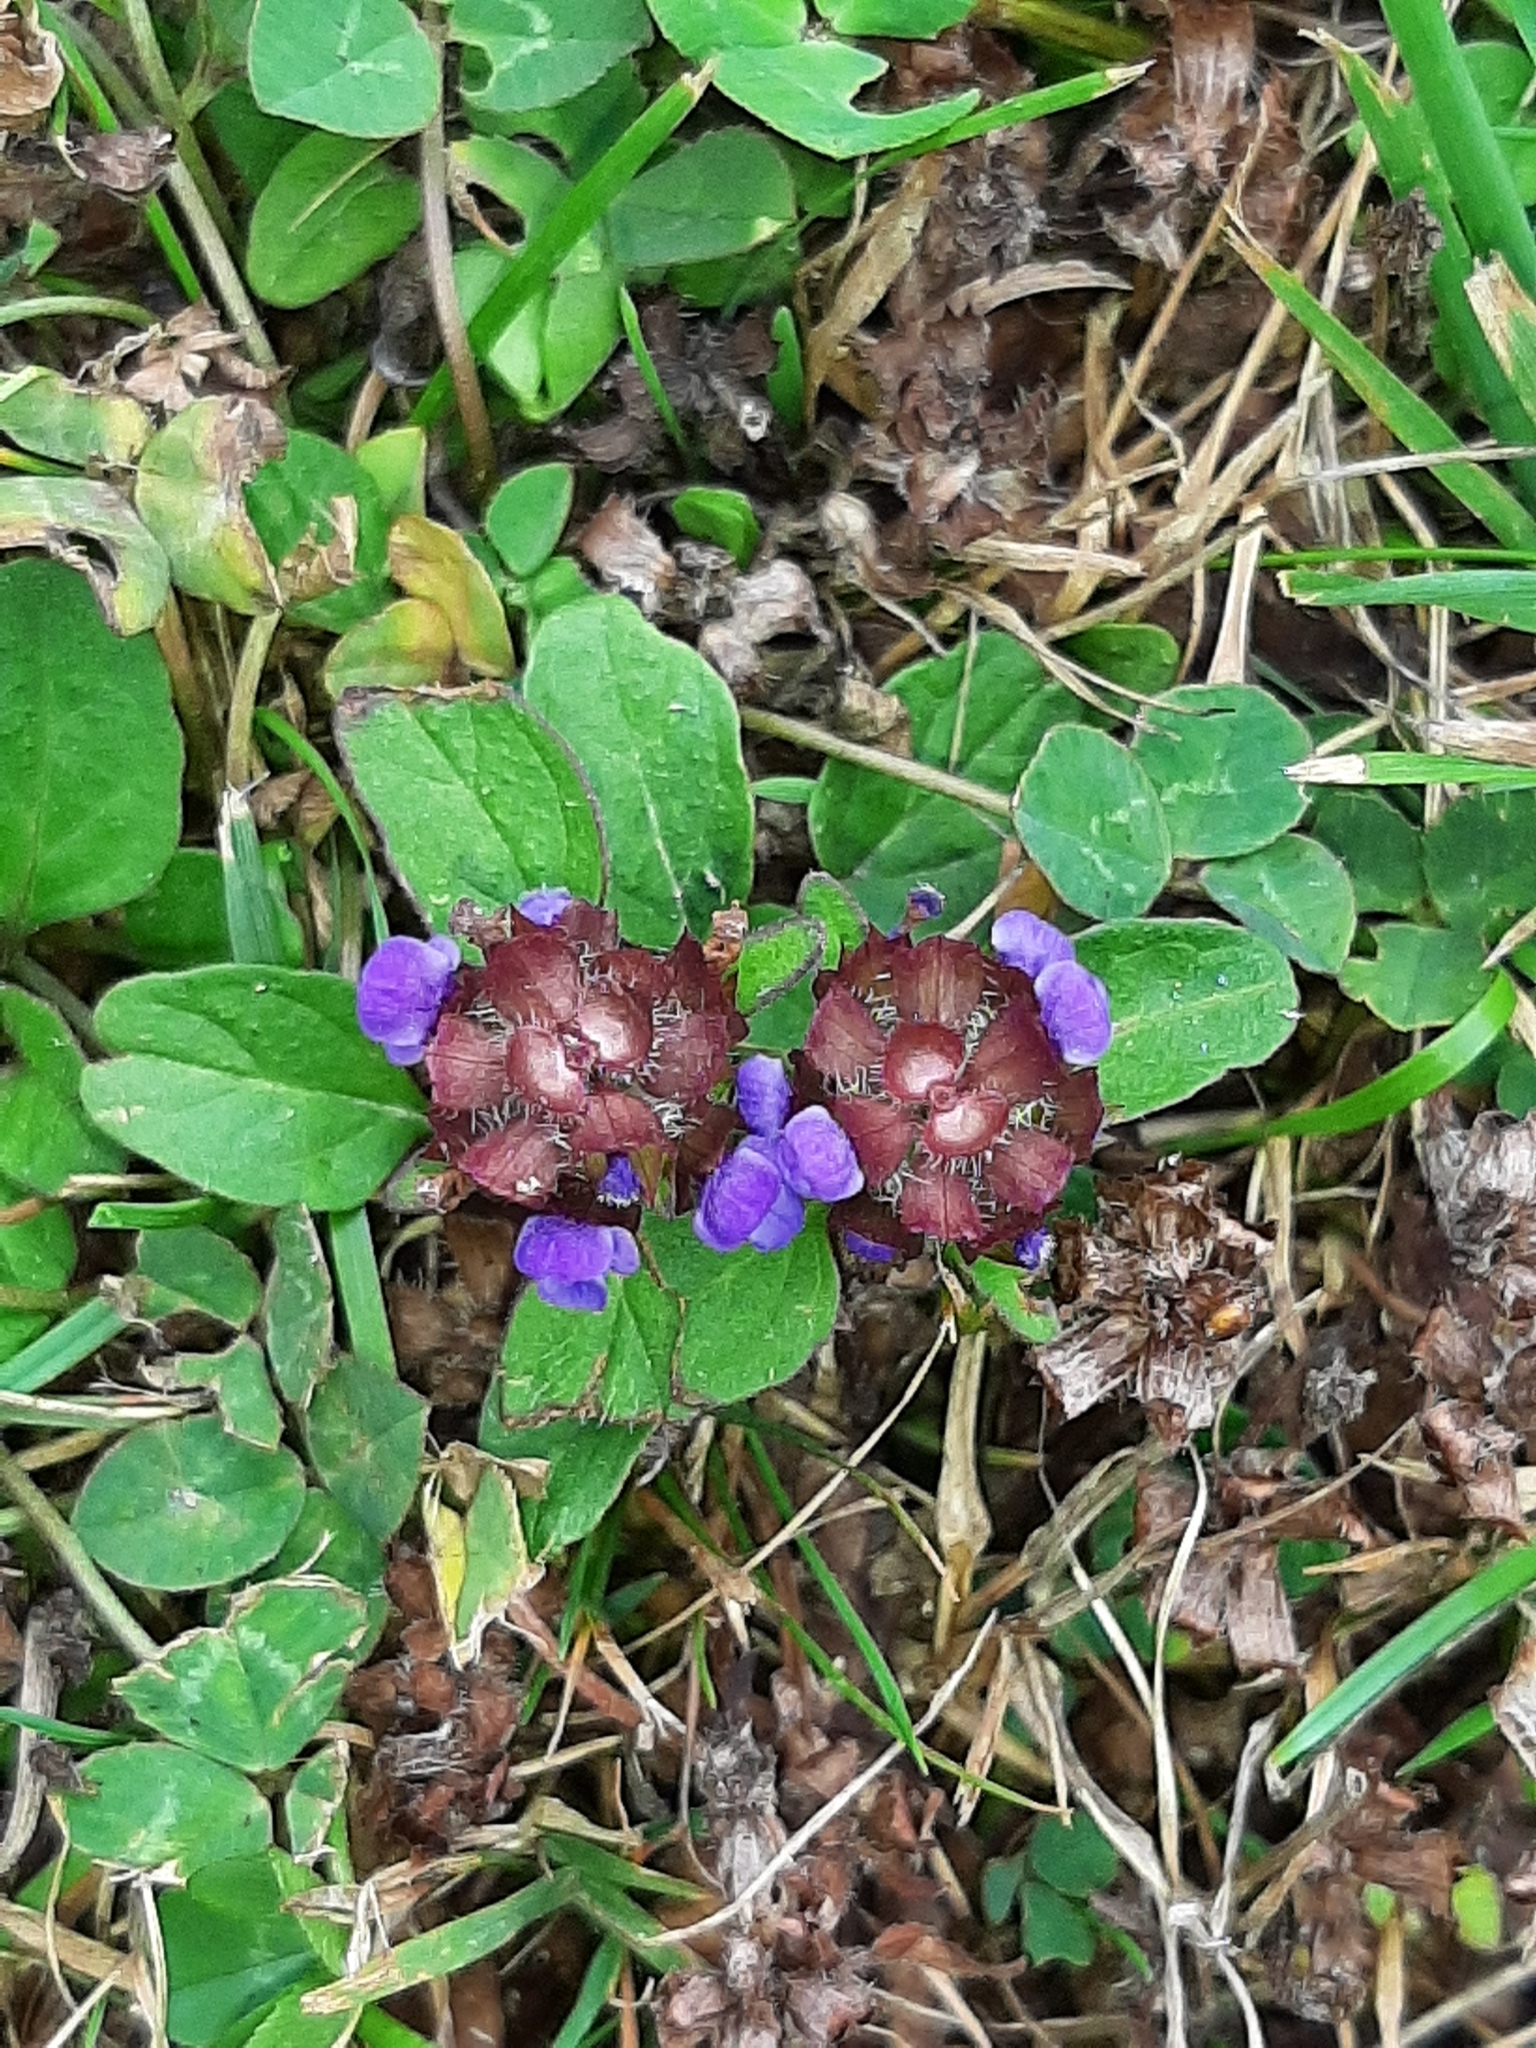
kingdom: Plantae
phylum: Tracheophyta
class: Magnoliopsida
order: Lamiales
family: Lamiaceae
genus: Prunella
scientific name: Prunella vulgaris
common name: Heal-all
